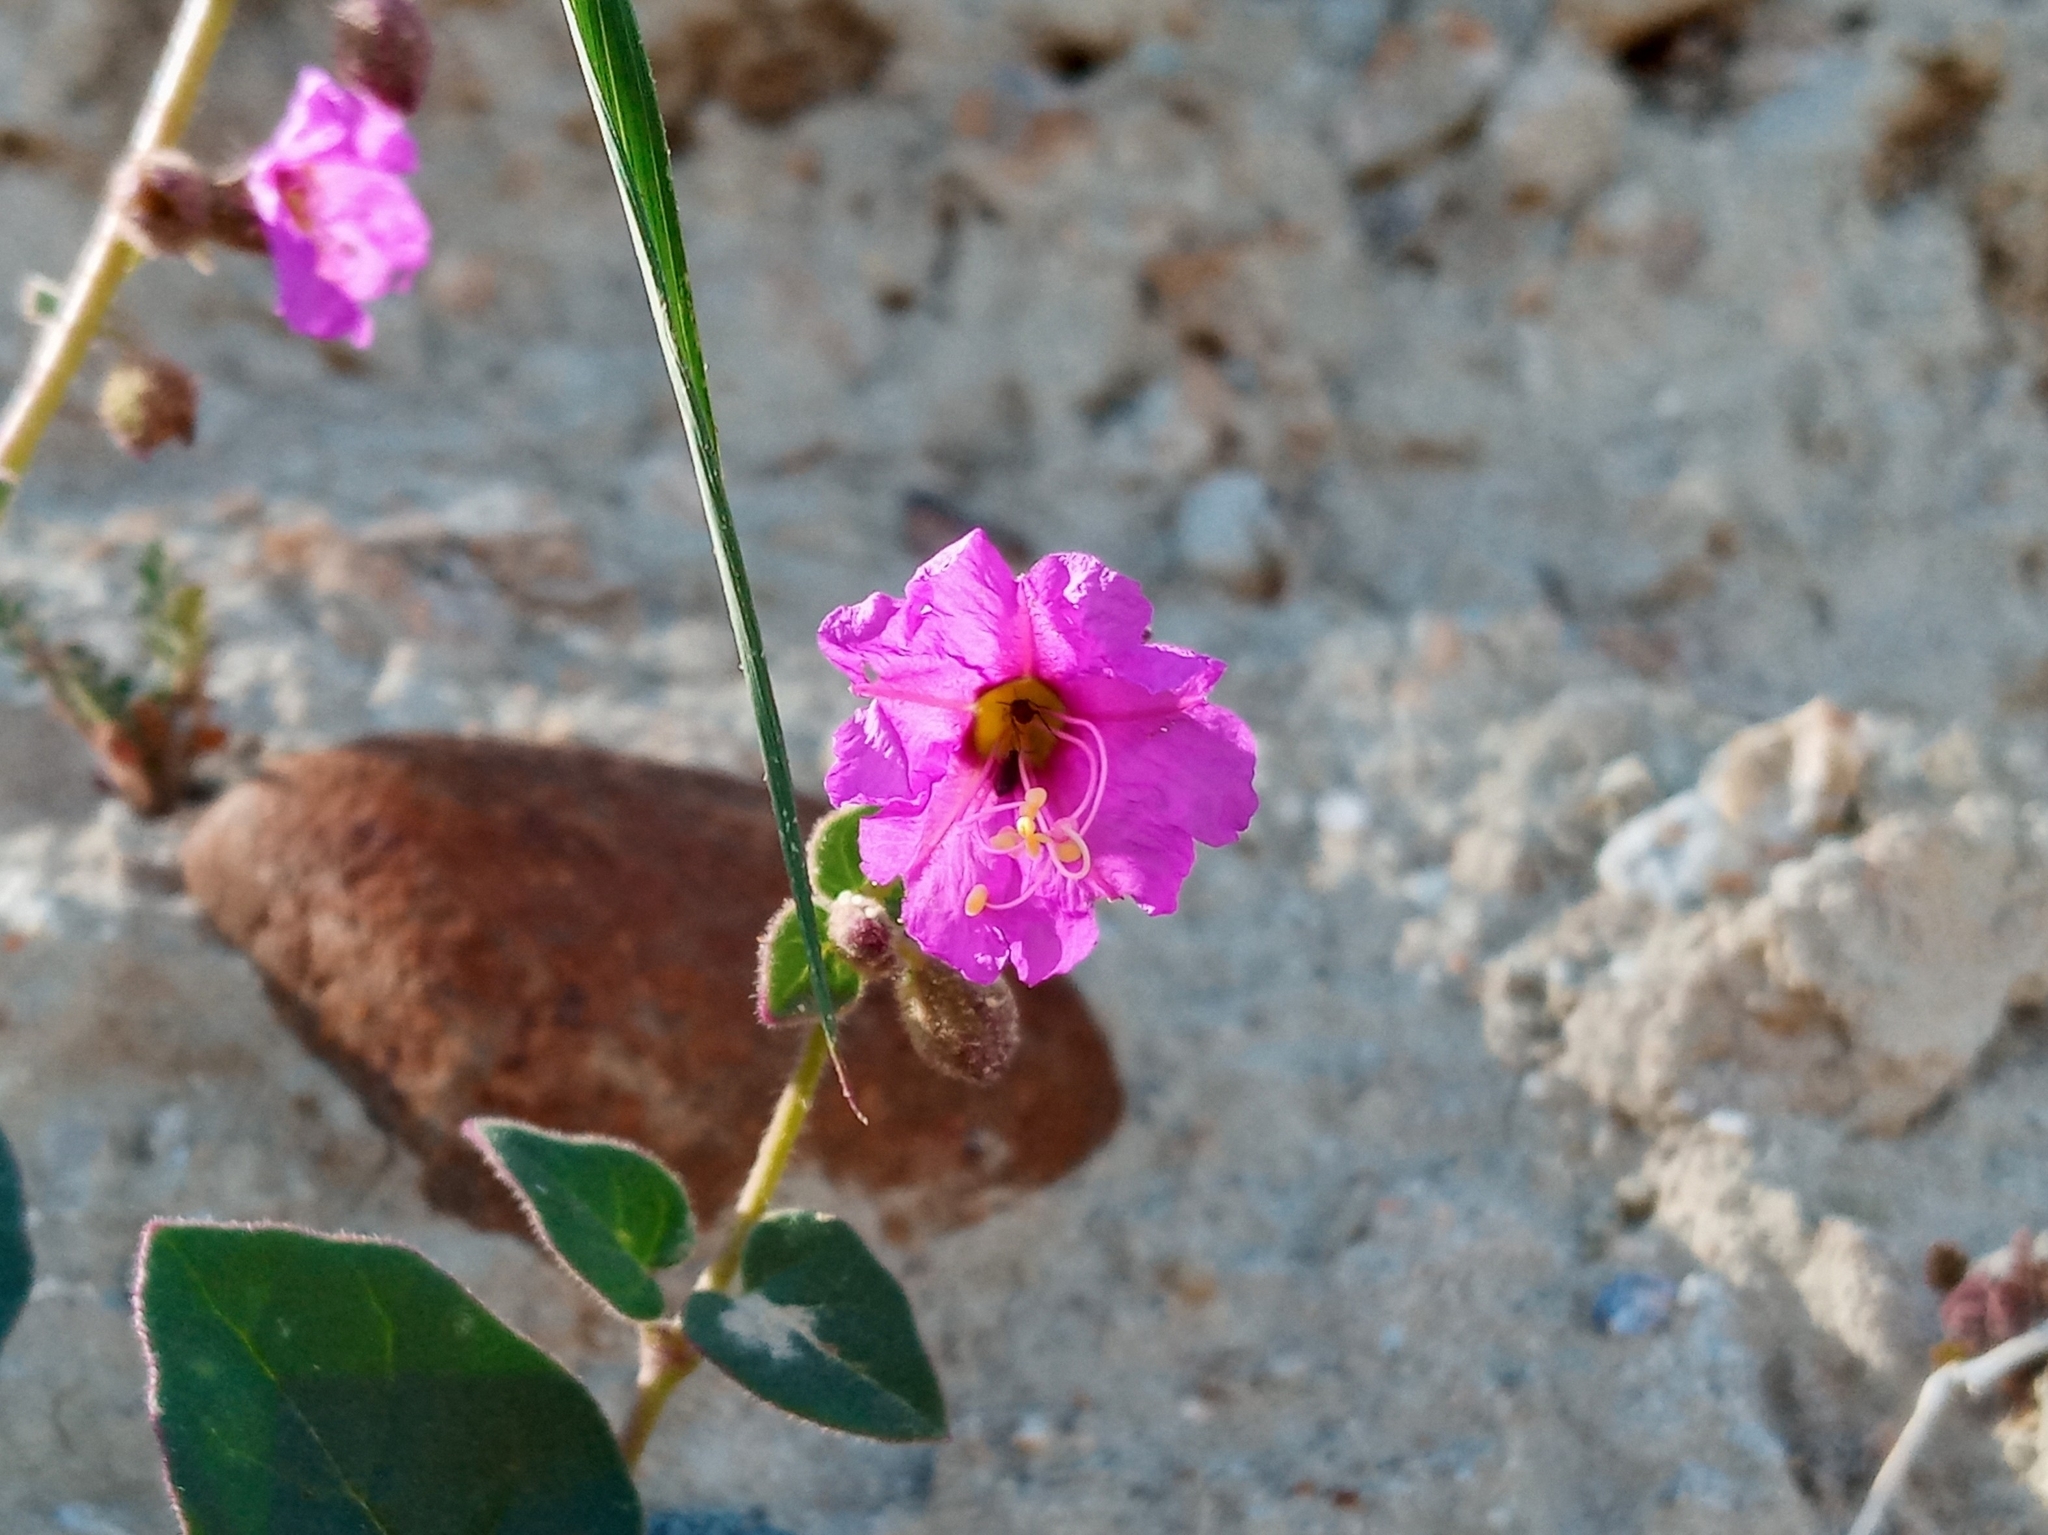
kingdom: Plantae
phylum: Tracheophyta
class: Magnoliopsida
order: Caryophyllales
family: Nyctaginaceae
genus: Mirabilis
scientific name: Mirabilis laevis
